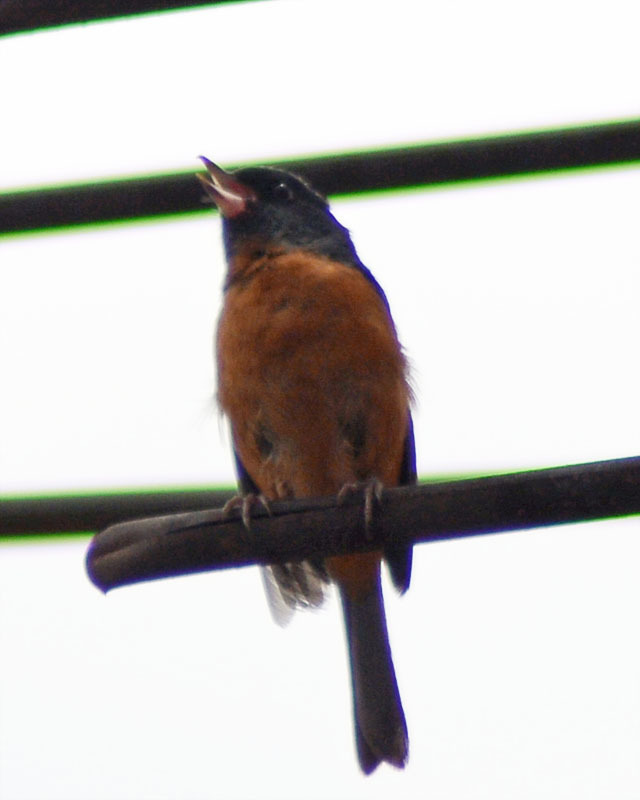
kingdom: Animalia
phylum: Chordata
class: Aves
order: Passeriformes
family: Thraupidae
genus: Diglossa
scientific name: Diglossa baritula
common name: Cinnamon-bellied flowerpiercer
